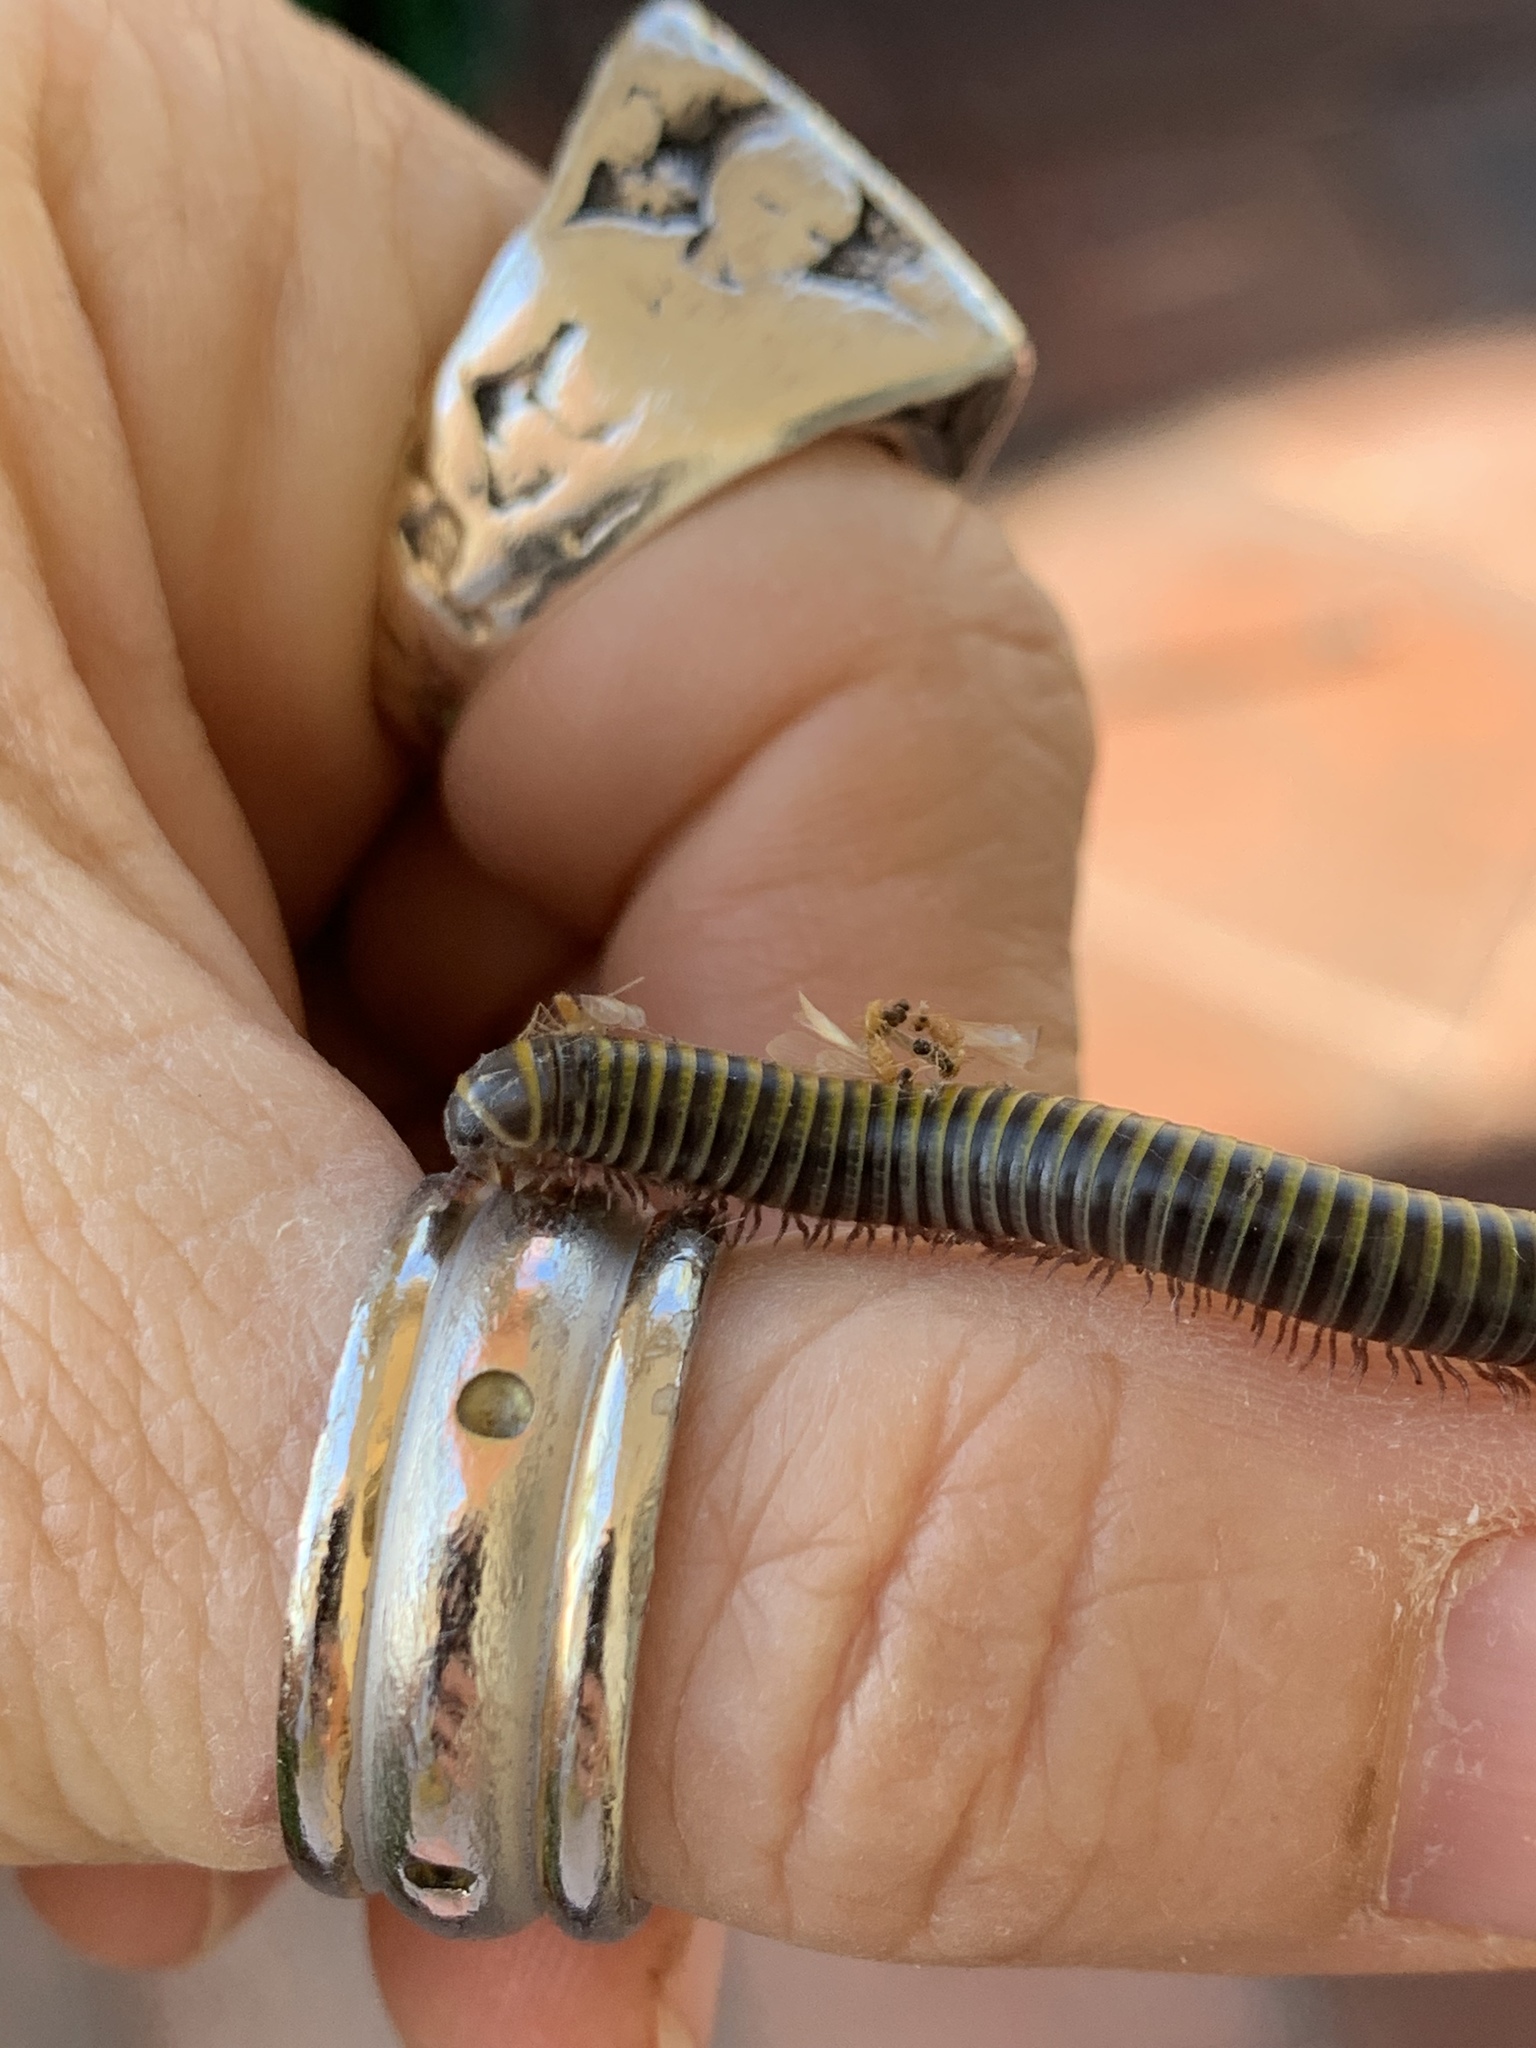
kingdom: Animalia
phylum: Arthropoda
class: Diplopoda
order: Spirobolida
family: Rhinocricidae
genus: Anadenobolus
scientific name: Anadenobolus monilicornis
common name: Caribbean millipede
